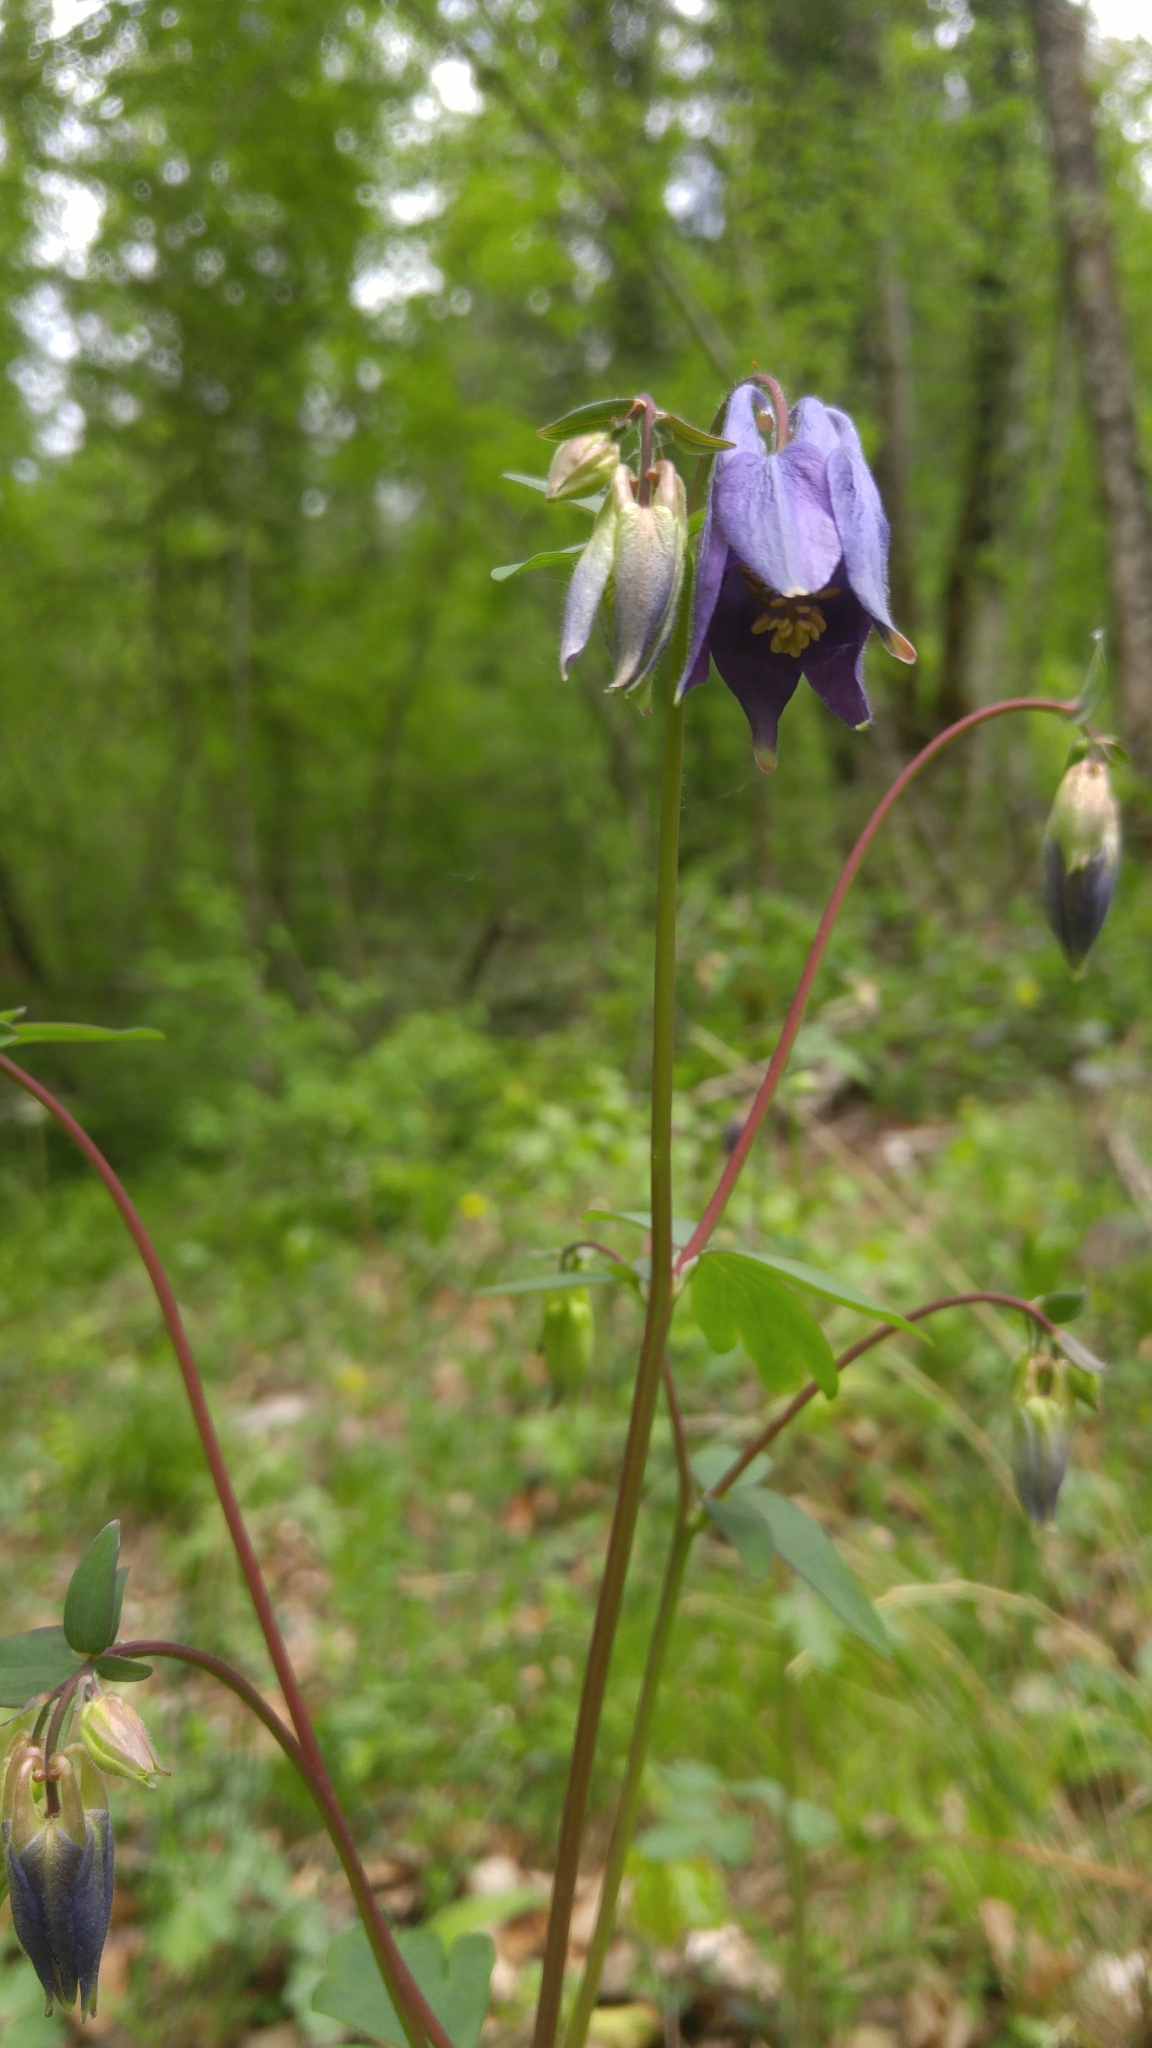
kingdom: Plantae
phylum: Tracheophyta
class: Magnoliopsida
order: Ranunculales
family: Ranunculaceae
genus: Aquilegia
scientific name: Aquilegia vulgaris
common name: Columbine
